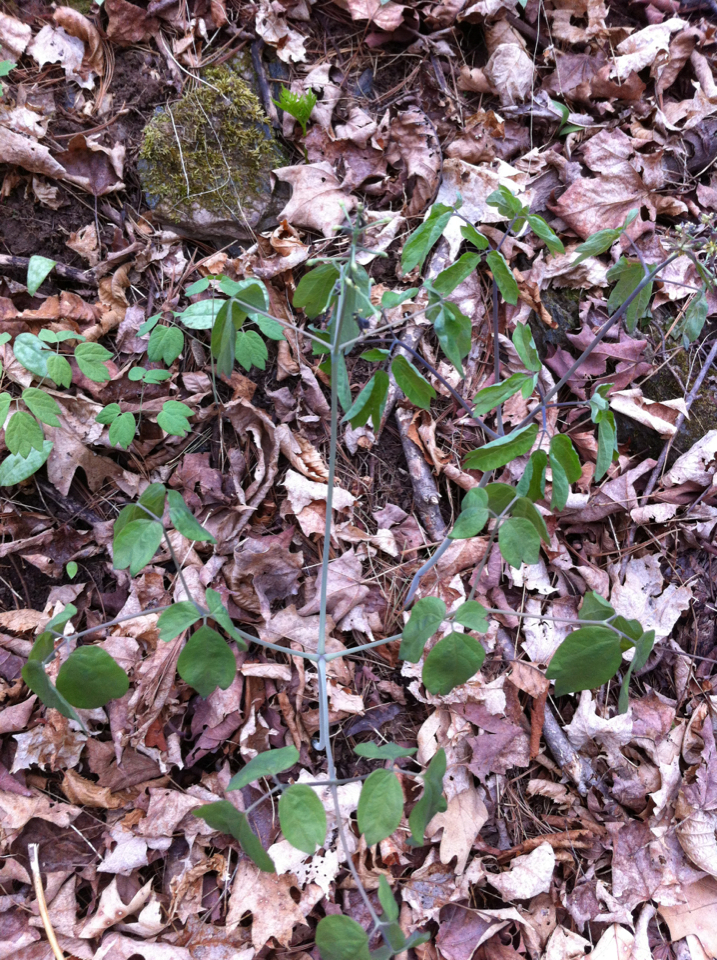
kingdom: Plantae
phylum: Tracheophyta
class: Magnoliopsida
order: Ranunculales
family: Berberidaceae
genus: Caulophyllum
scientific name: Caulophyllum giganteum
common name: Blue cohosh
